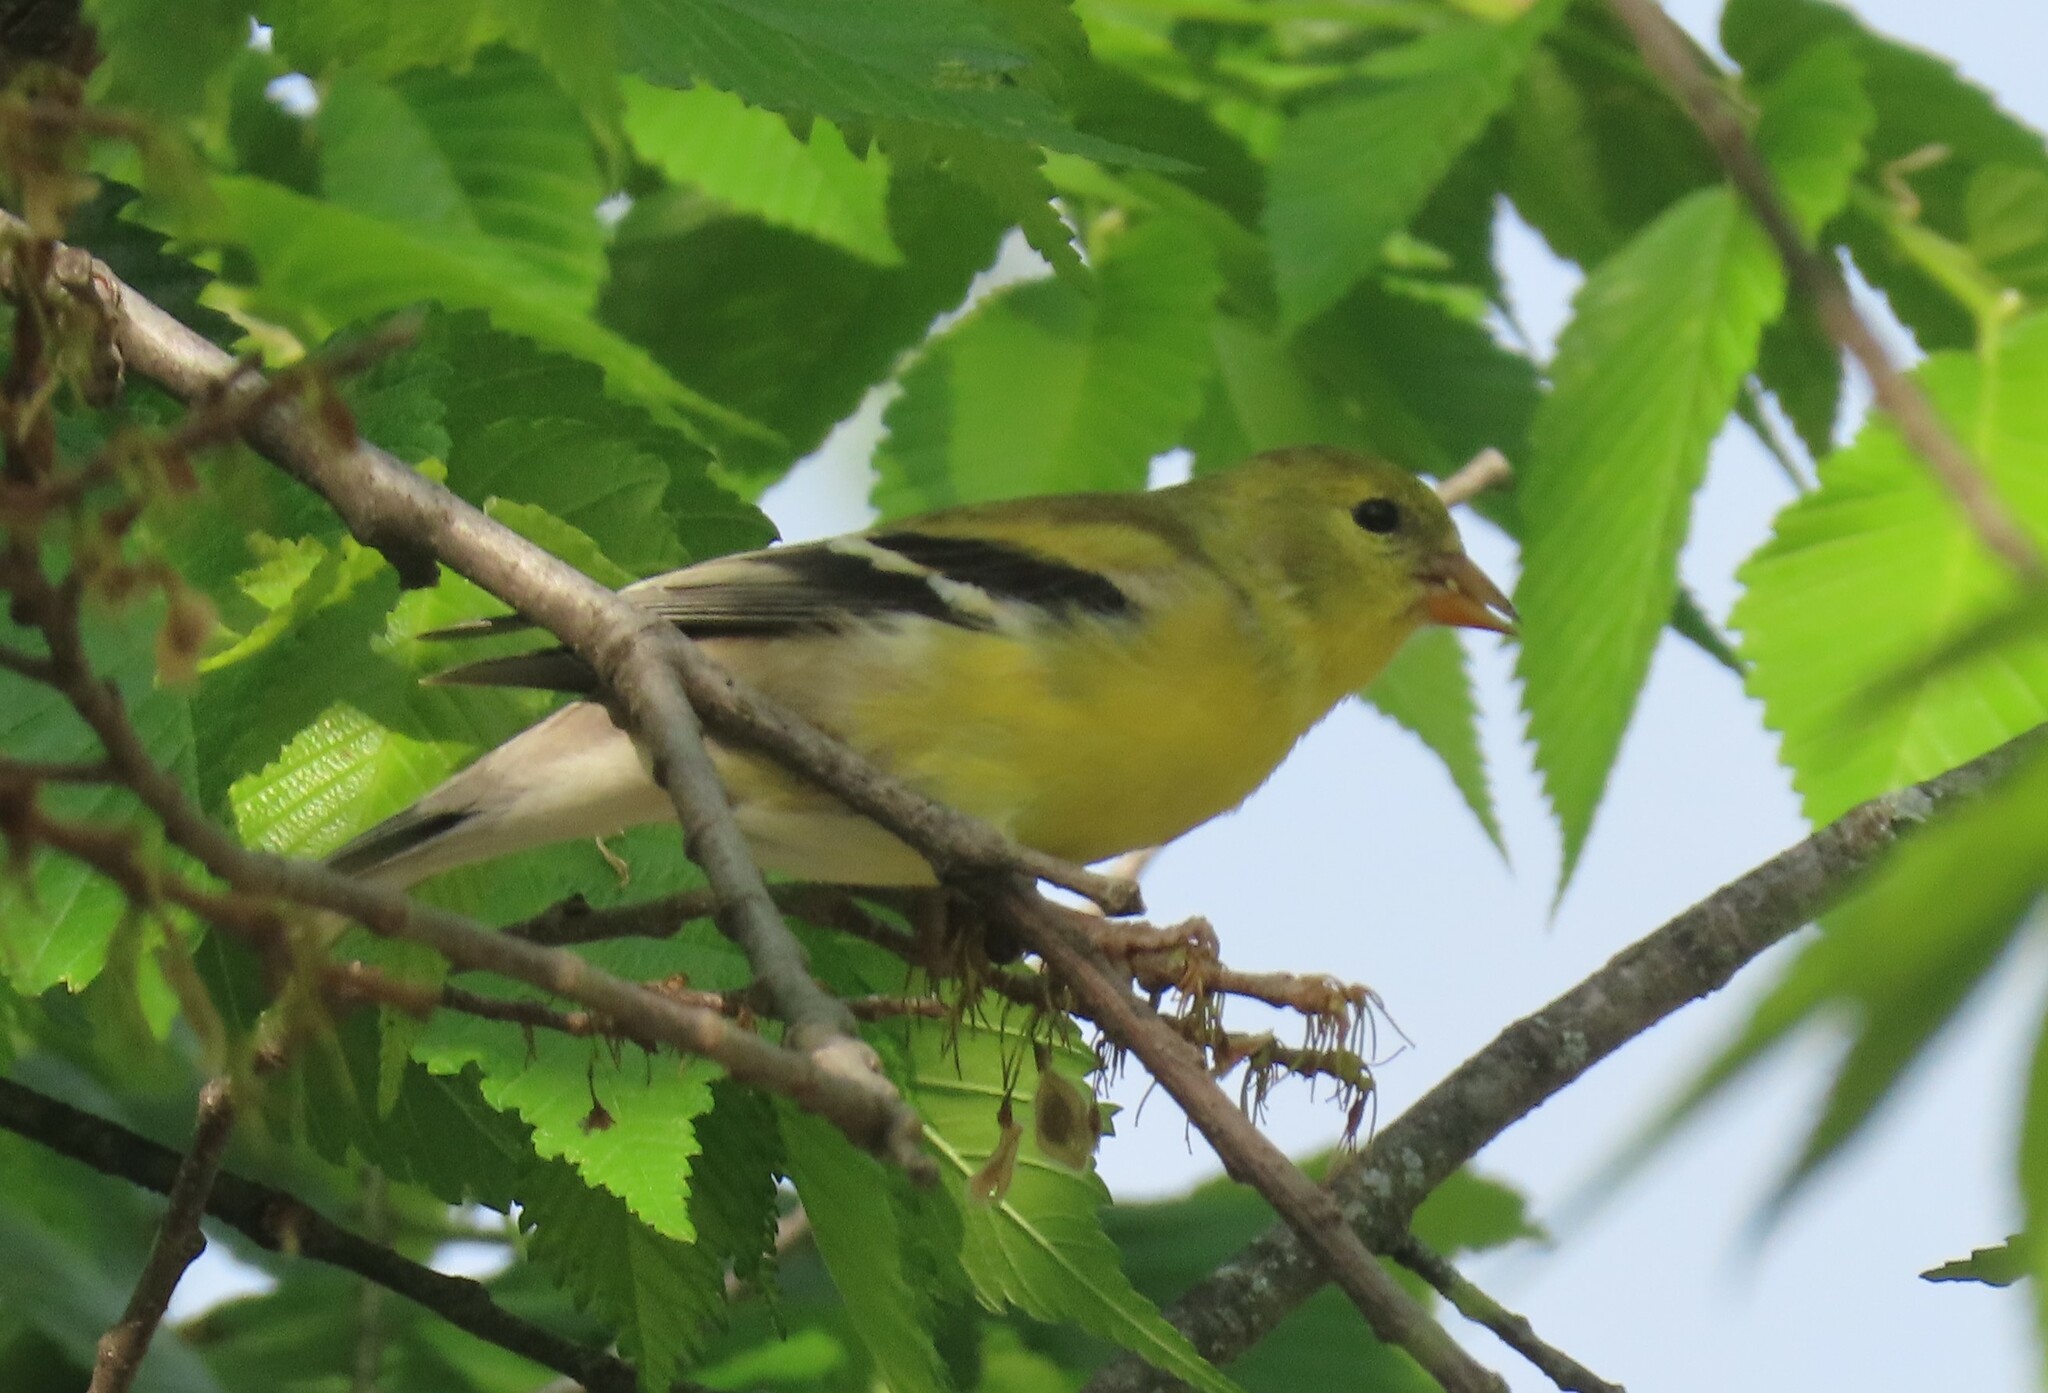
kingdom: Animalia
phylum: Chordata
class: Aves
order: Passeriformes
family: Fringillidae
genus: Spinus
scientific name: Spinus tristis
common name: American goldfinch
